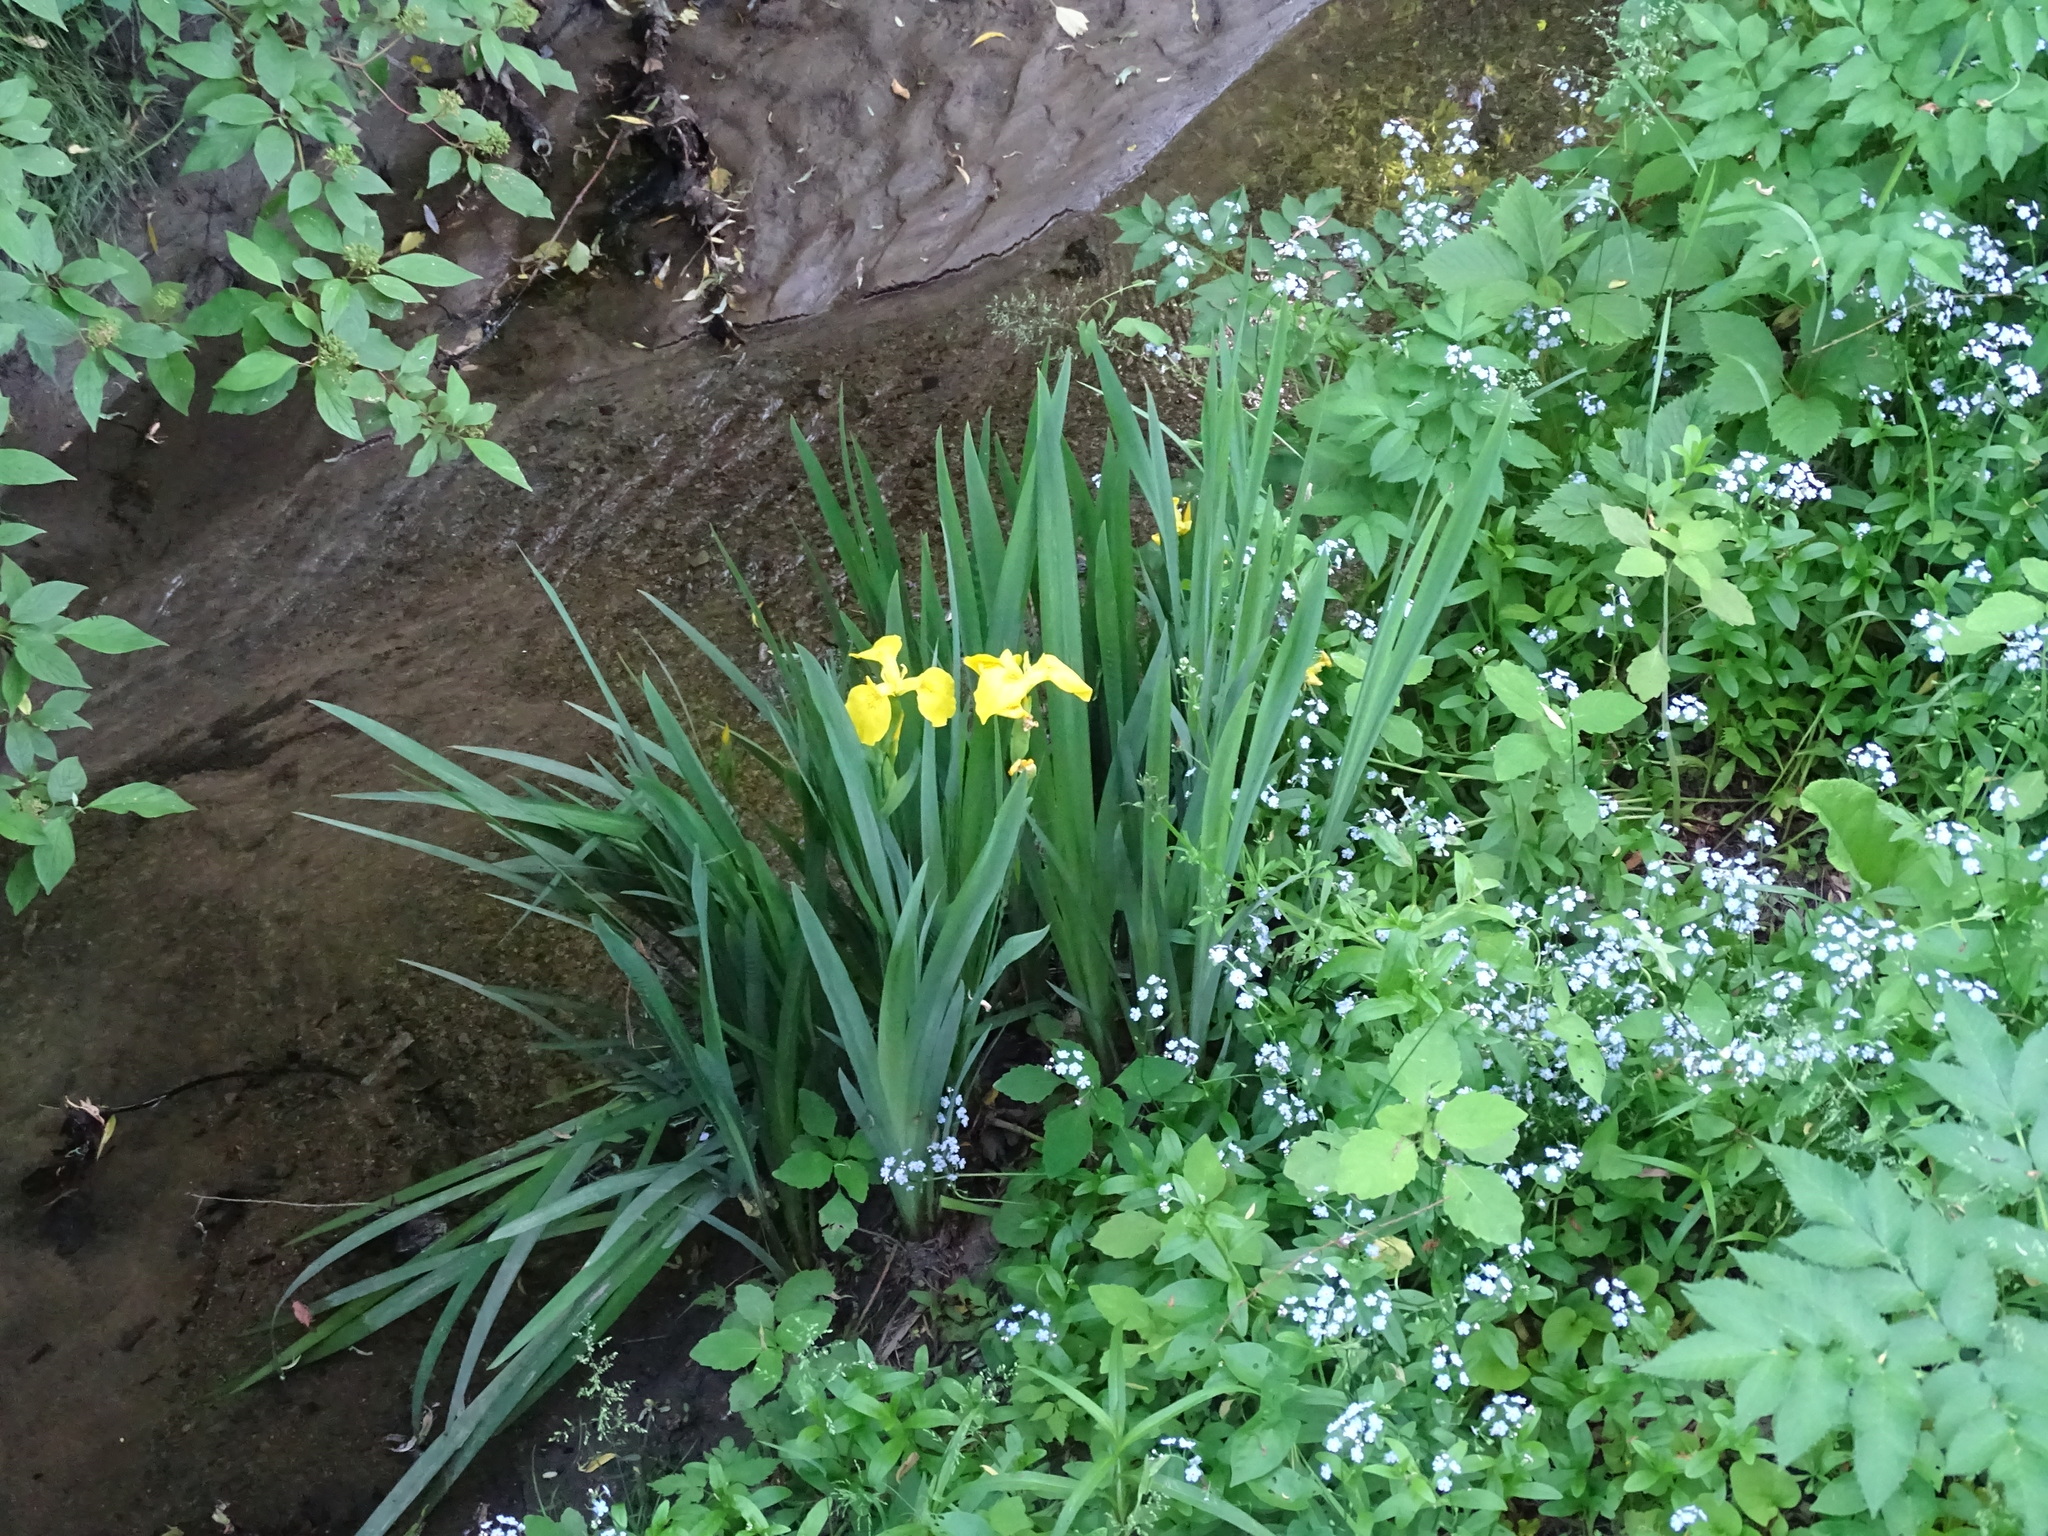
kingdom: Plantae
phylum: Tracheophyta
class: Liliopsida
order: Asparagales
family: Iridaceae
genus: Iris
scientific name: Iris pseudacorus
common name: Yellow flag
